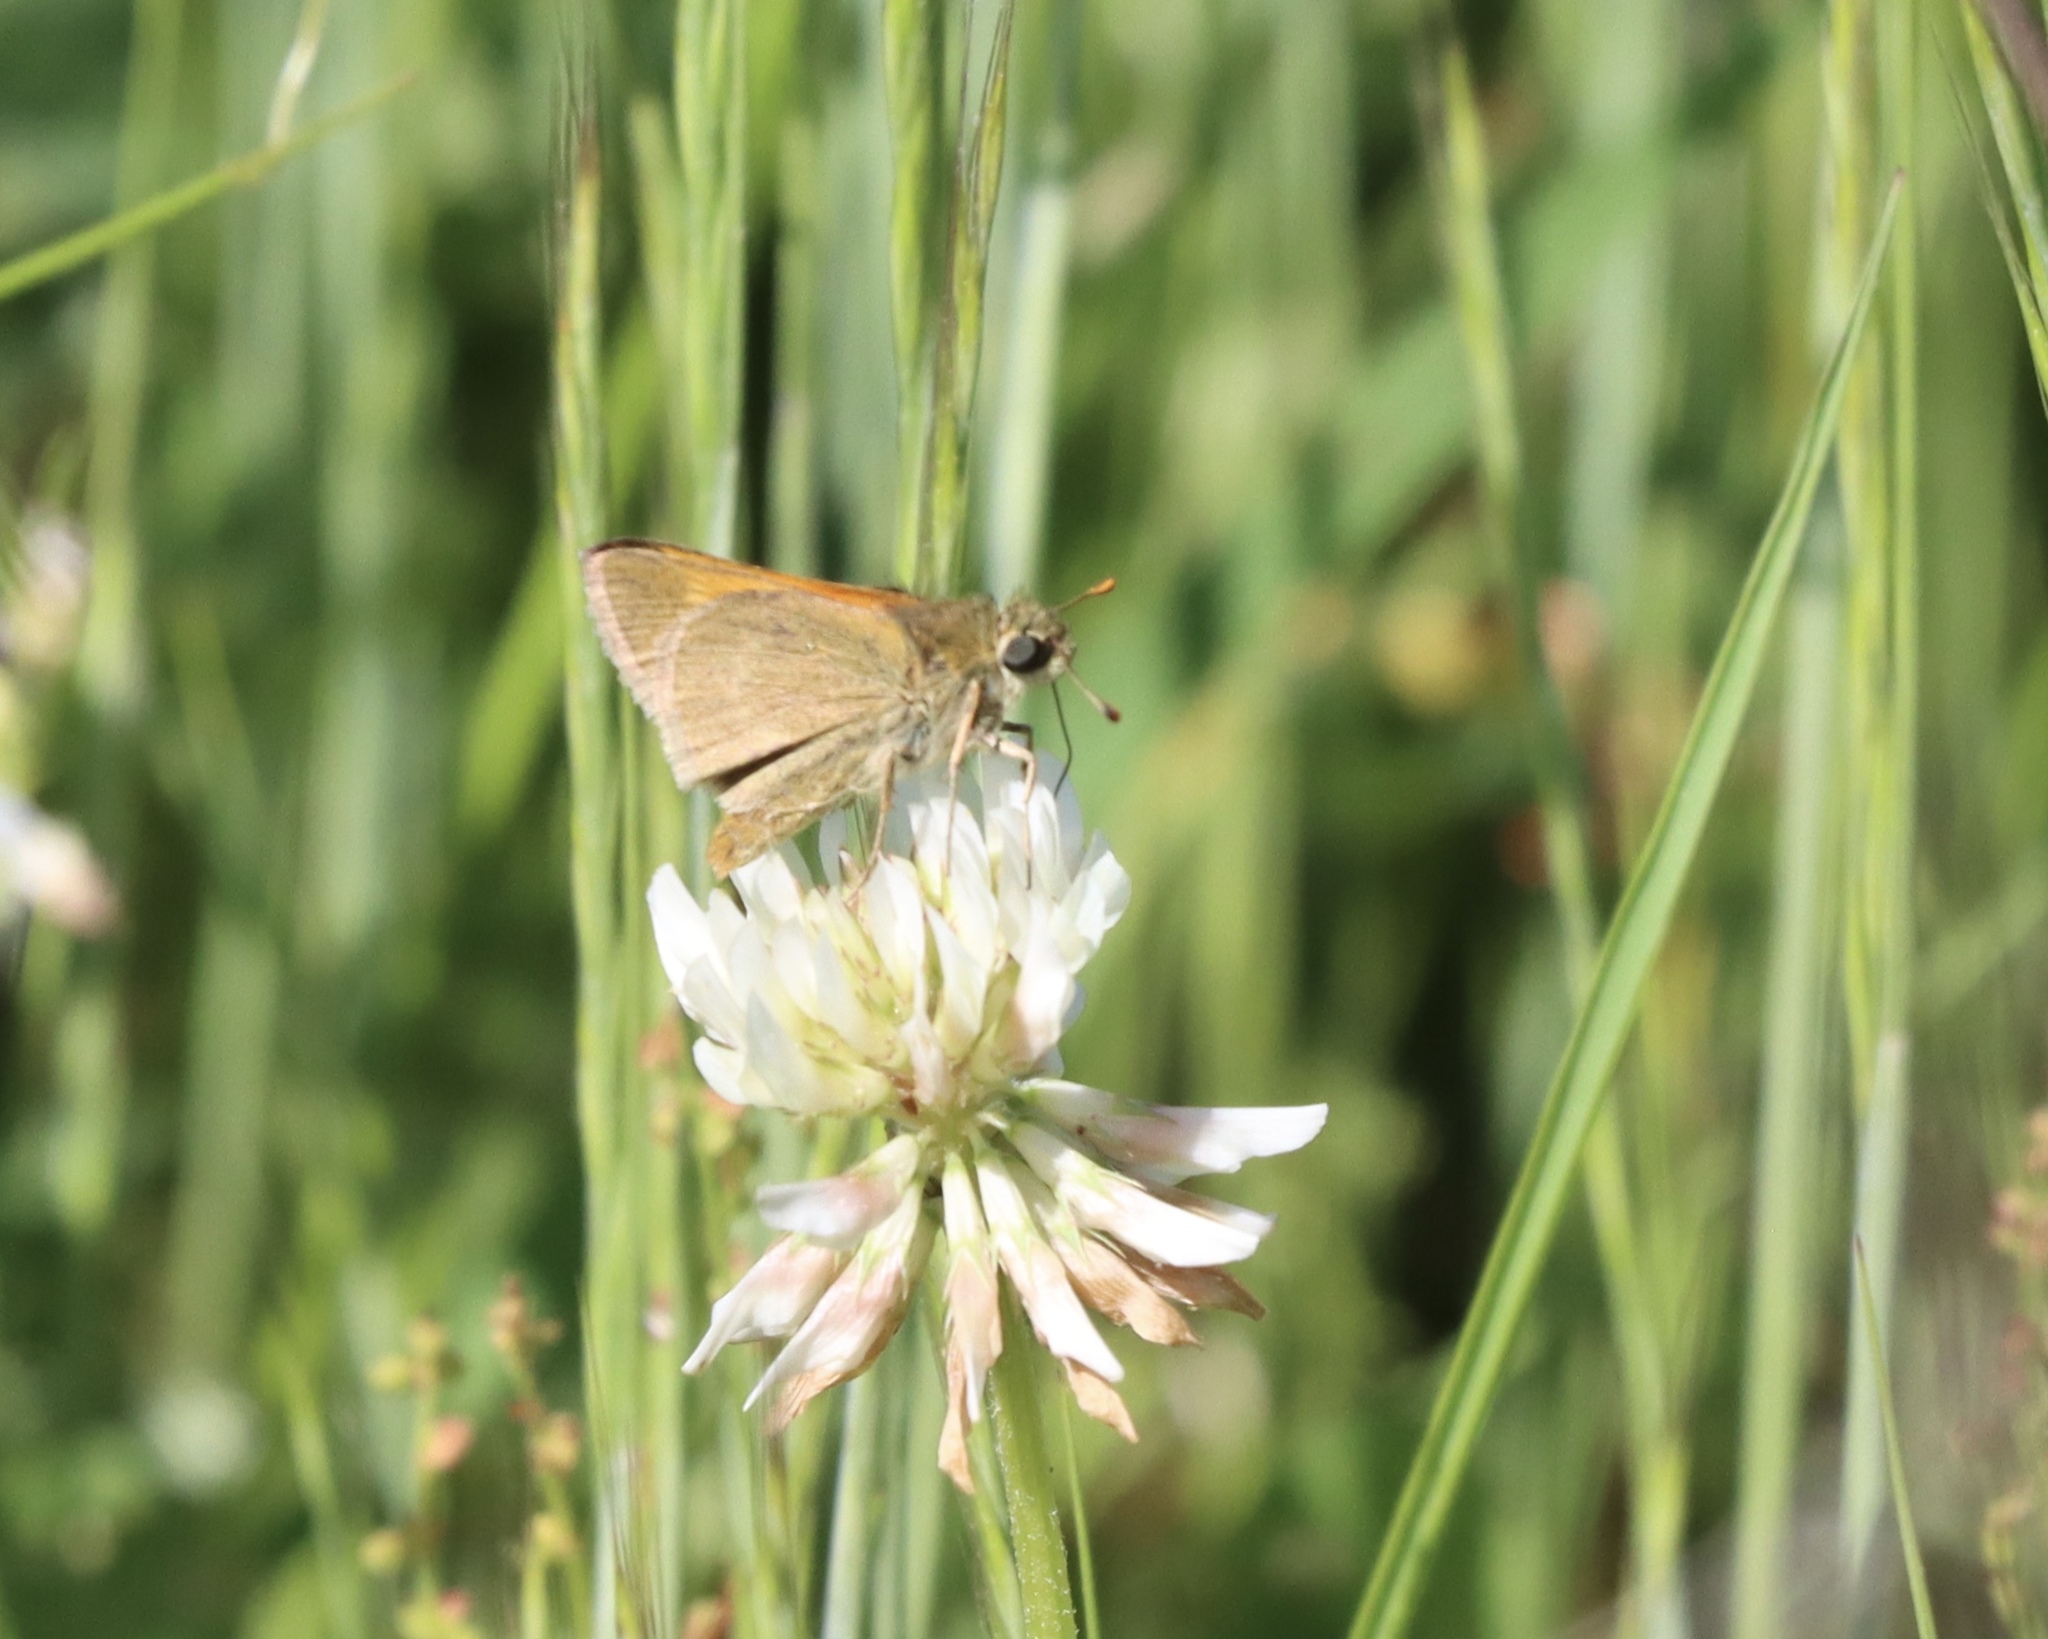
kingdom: Animalia
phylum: Arthropoda
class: Insecta
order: Lepidoptera
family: Hesperiidae
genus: Polites
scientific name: Polites themistocles
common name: Tawny-edged skipper
